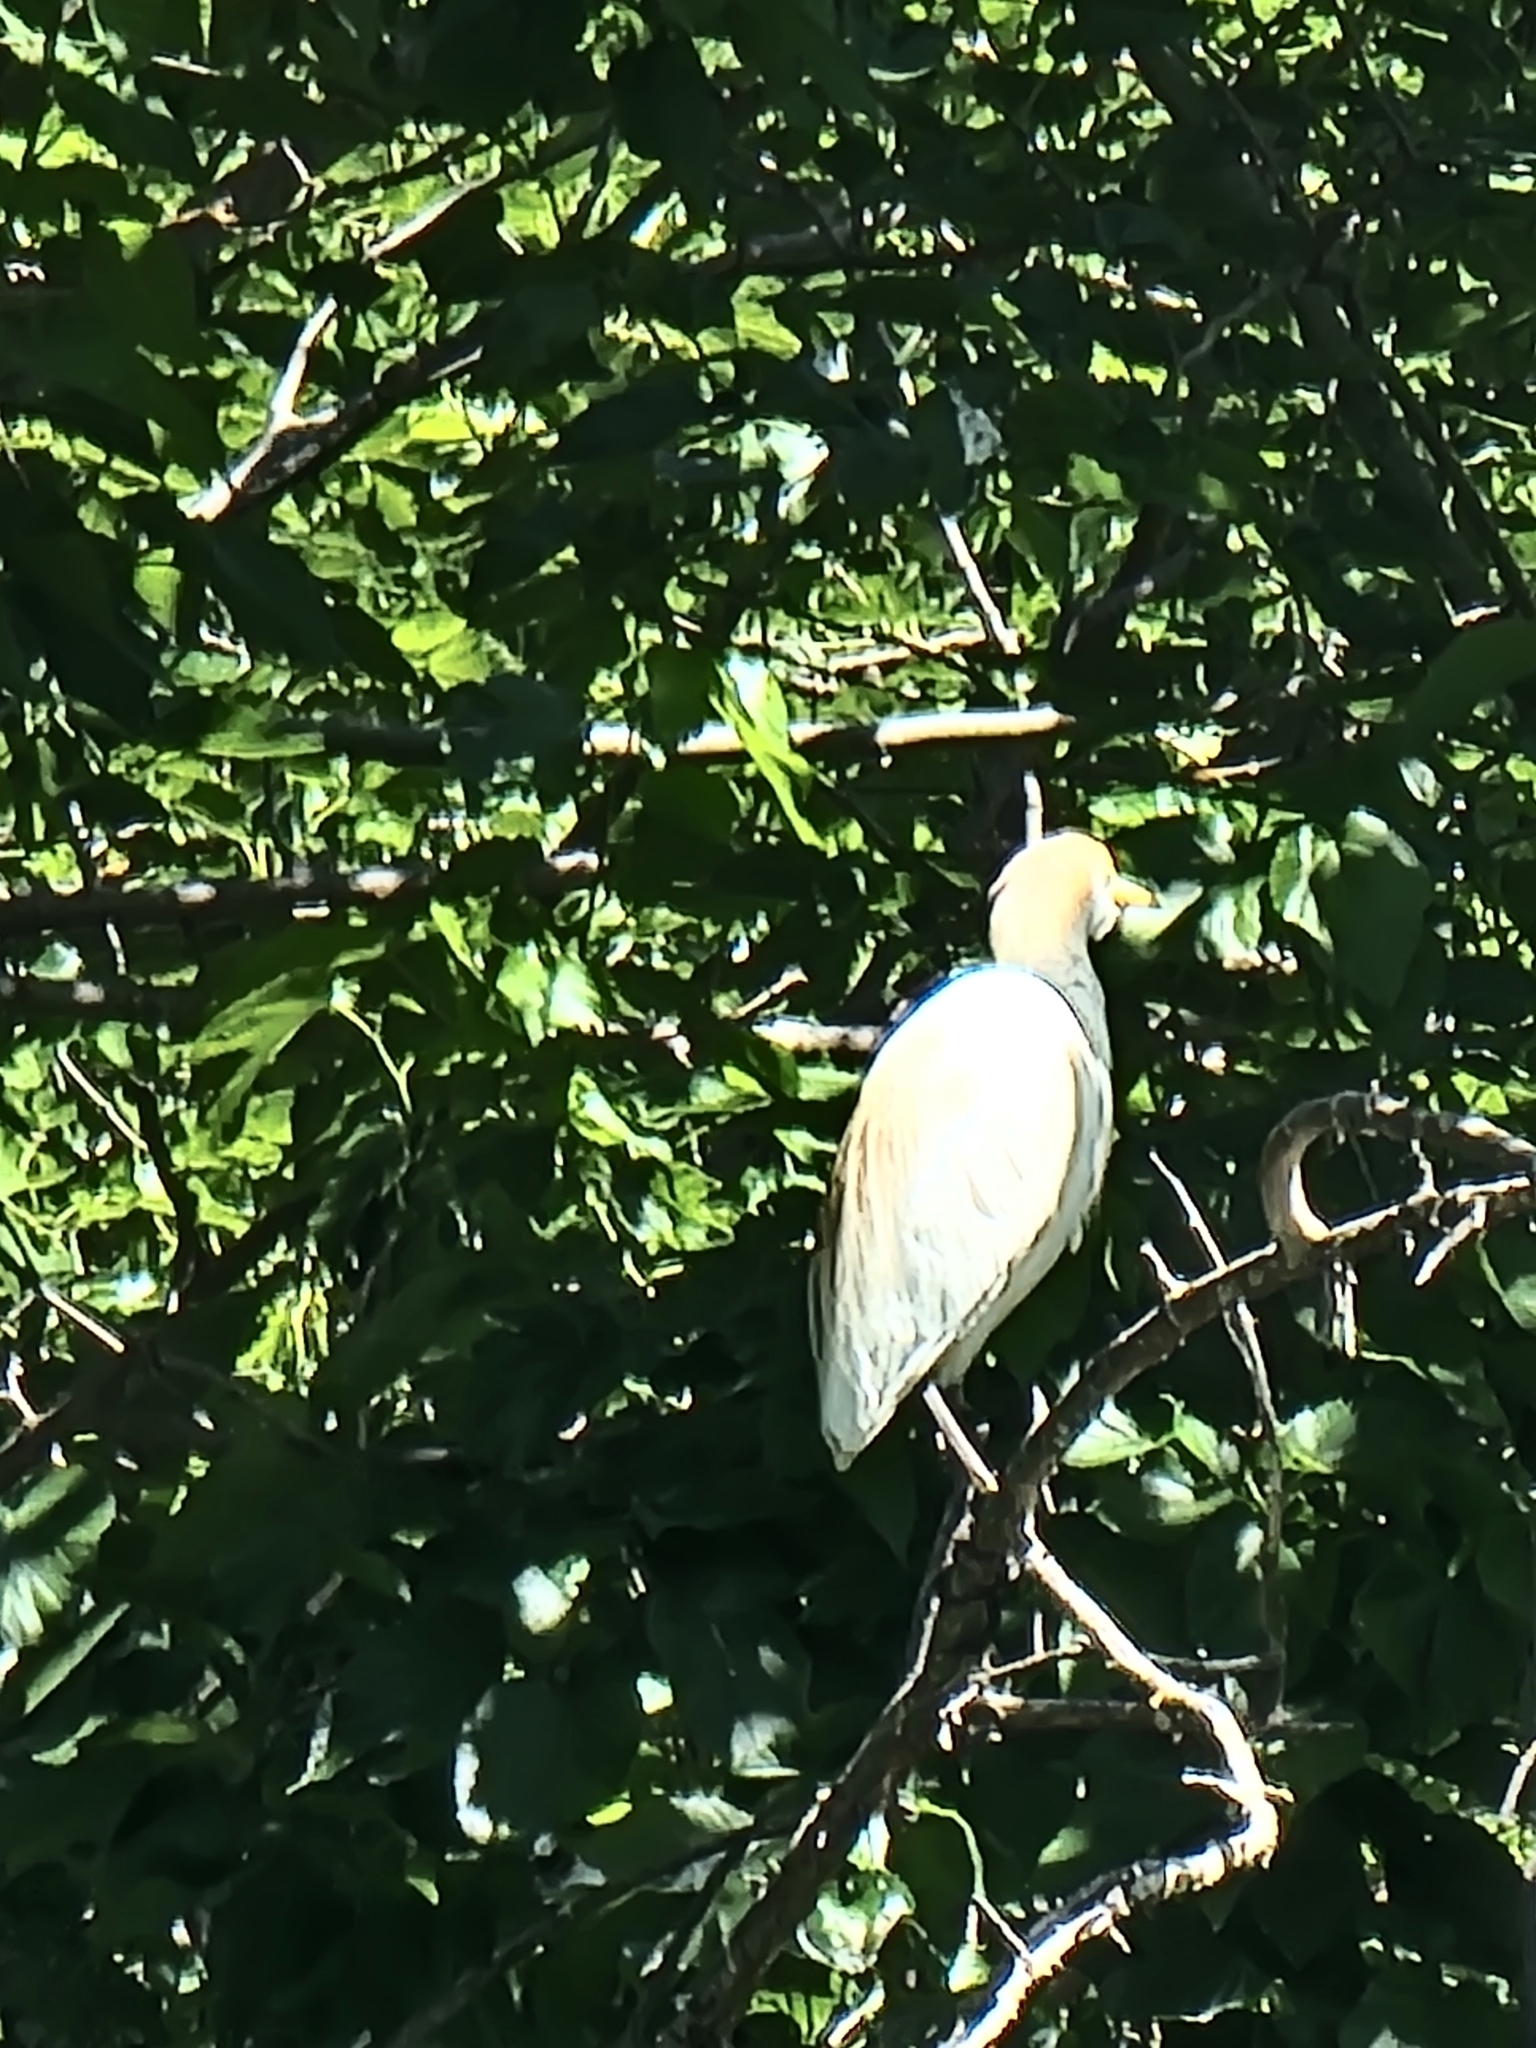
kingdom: Animalia
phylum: Chordata
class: Aves
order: Pelecaniformes
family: Ardeidae
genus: Bubulcus
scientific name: Bubulcus ibis
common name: Cattle egret
